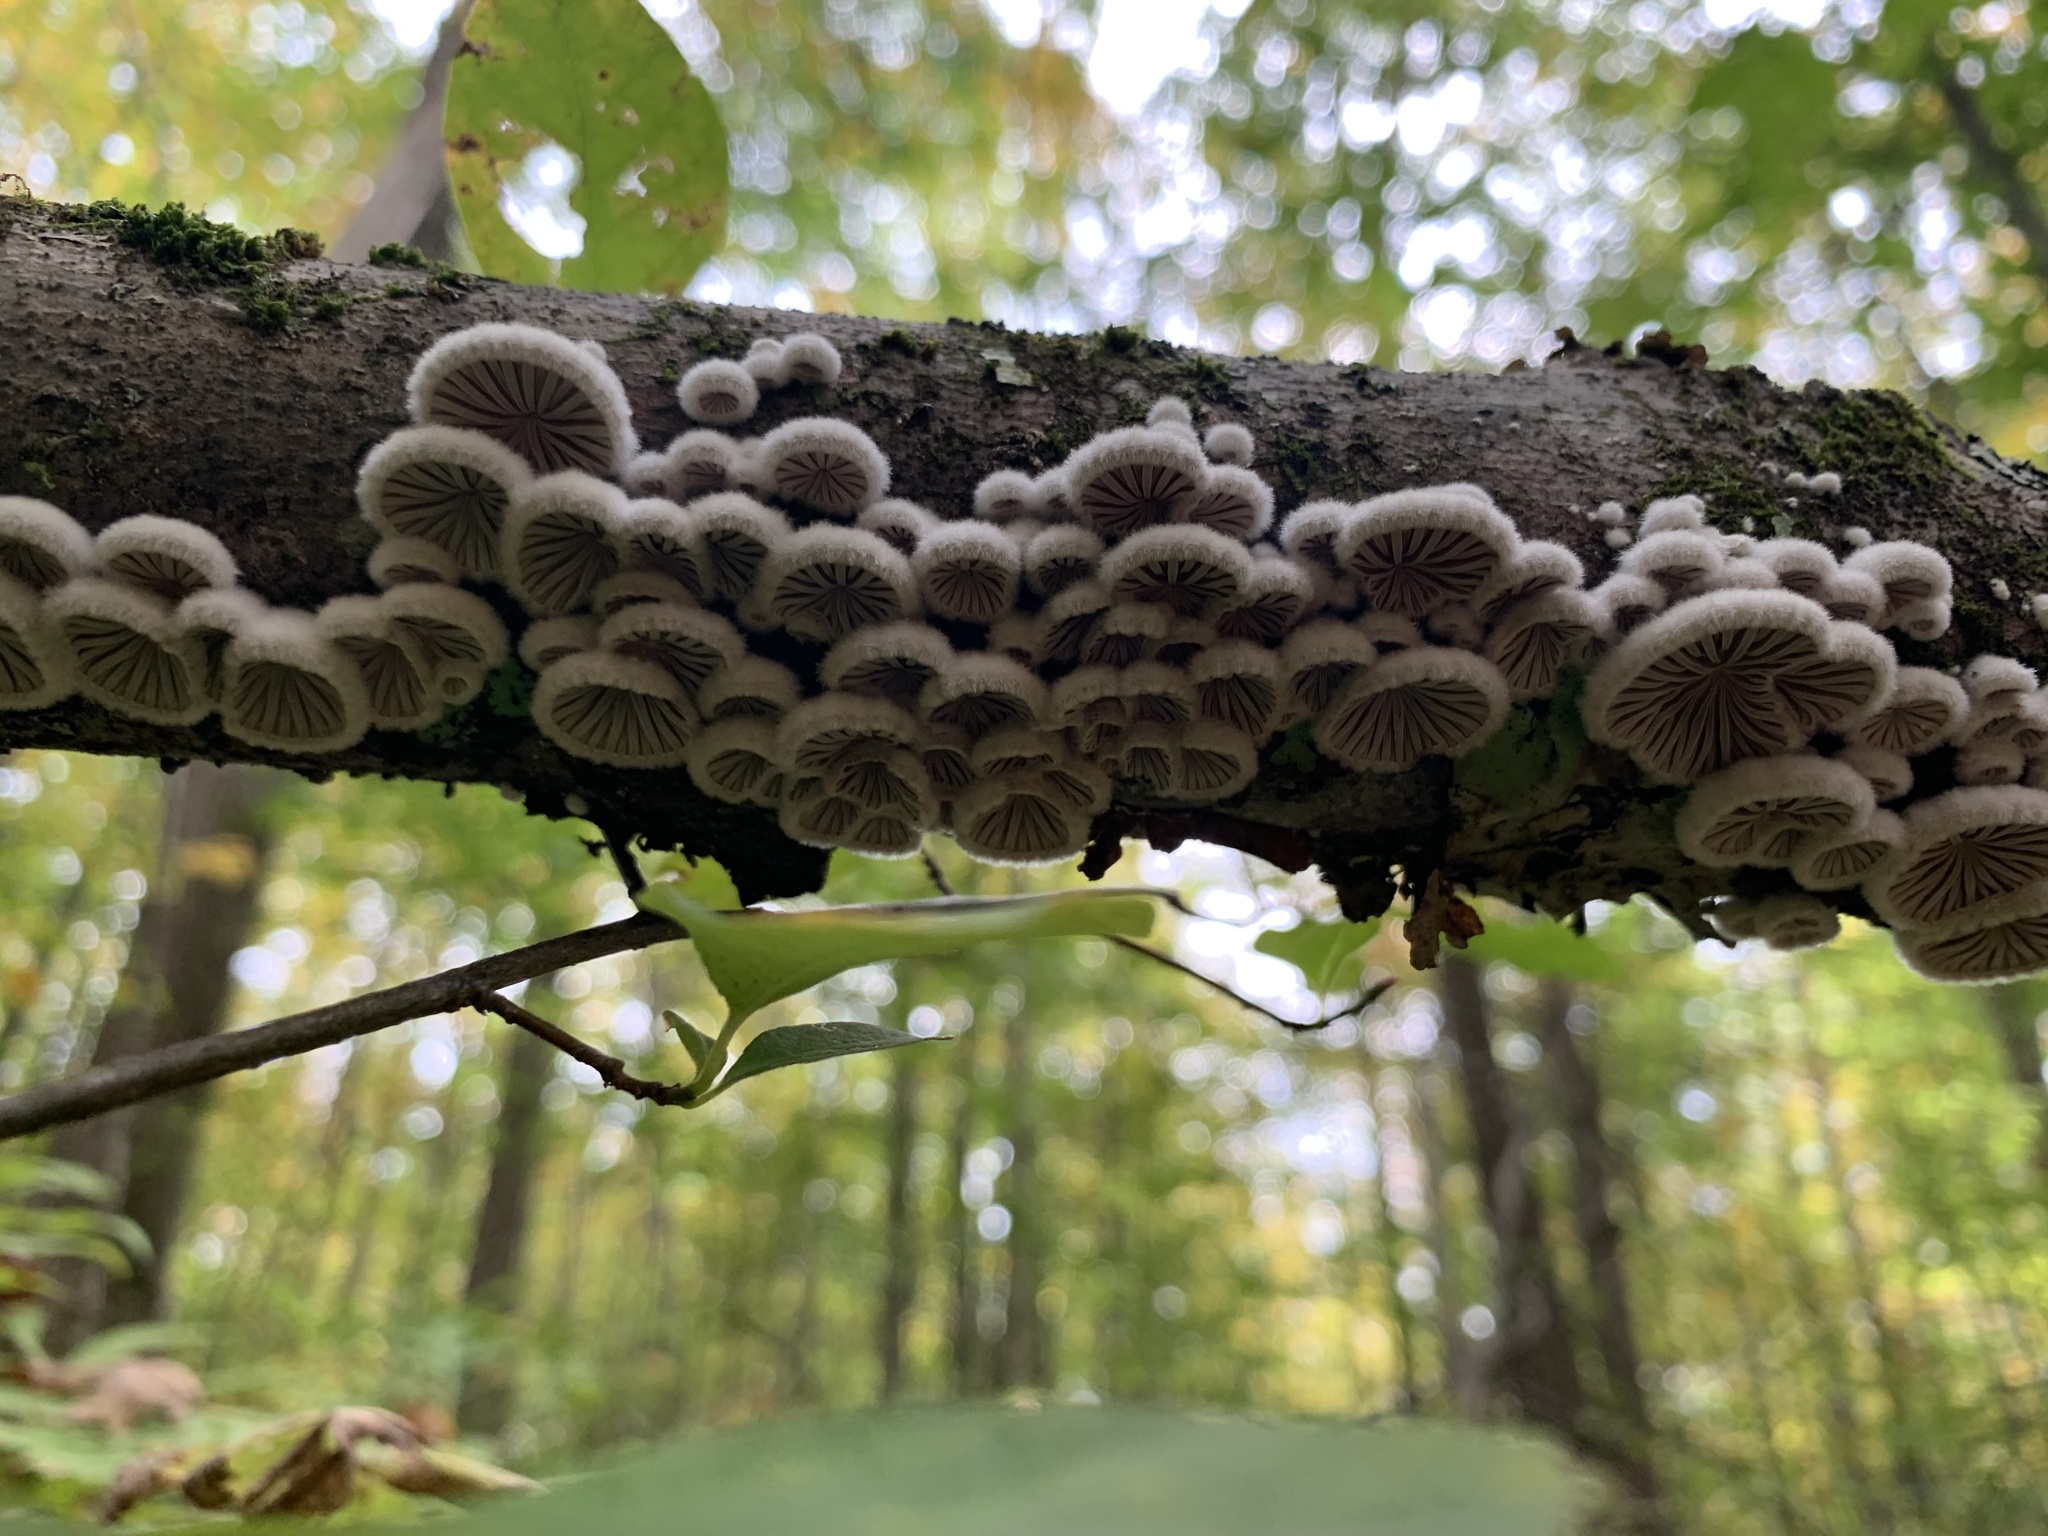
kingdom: Fungi
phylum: Basidiomycota
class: Agaricomycetes
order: Agaricales
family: Schizophyllaceae
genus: Schizophyllum
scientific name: Schizophyllum commune
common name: Common porecrust
